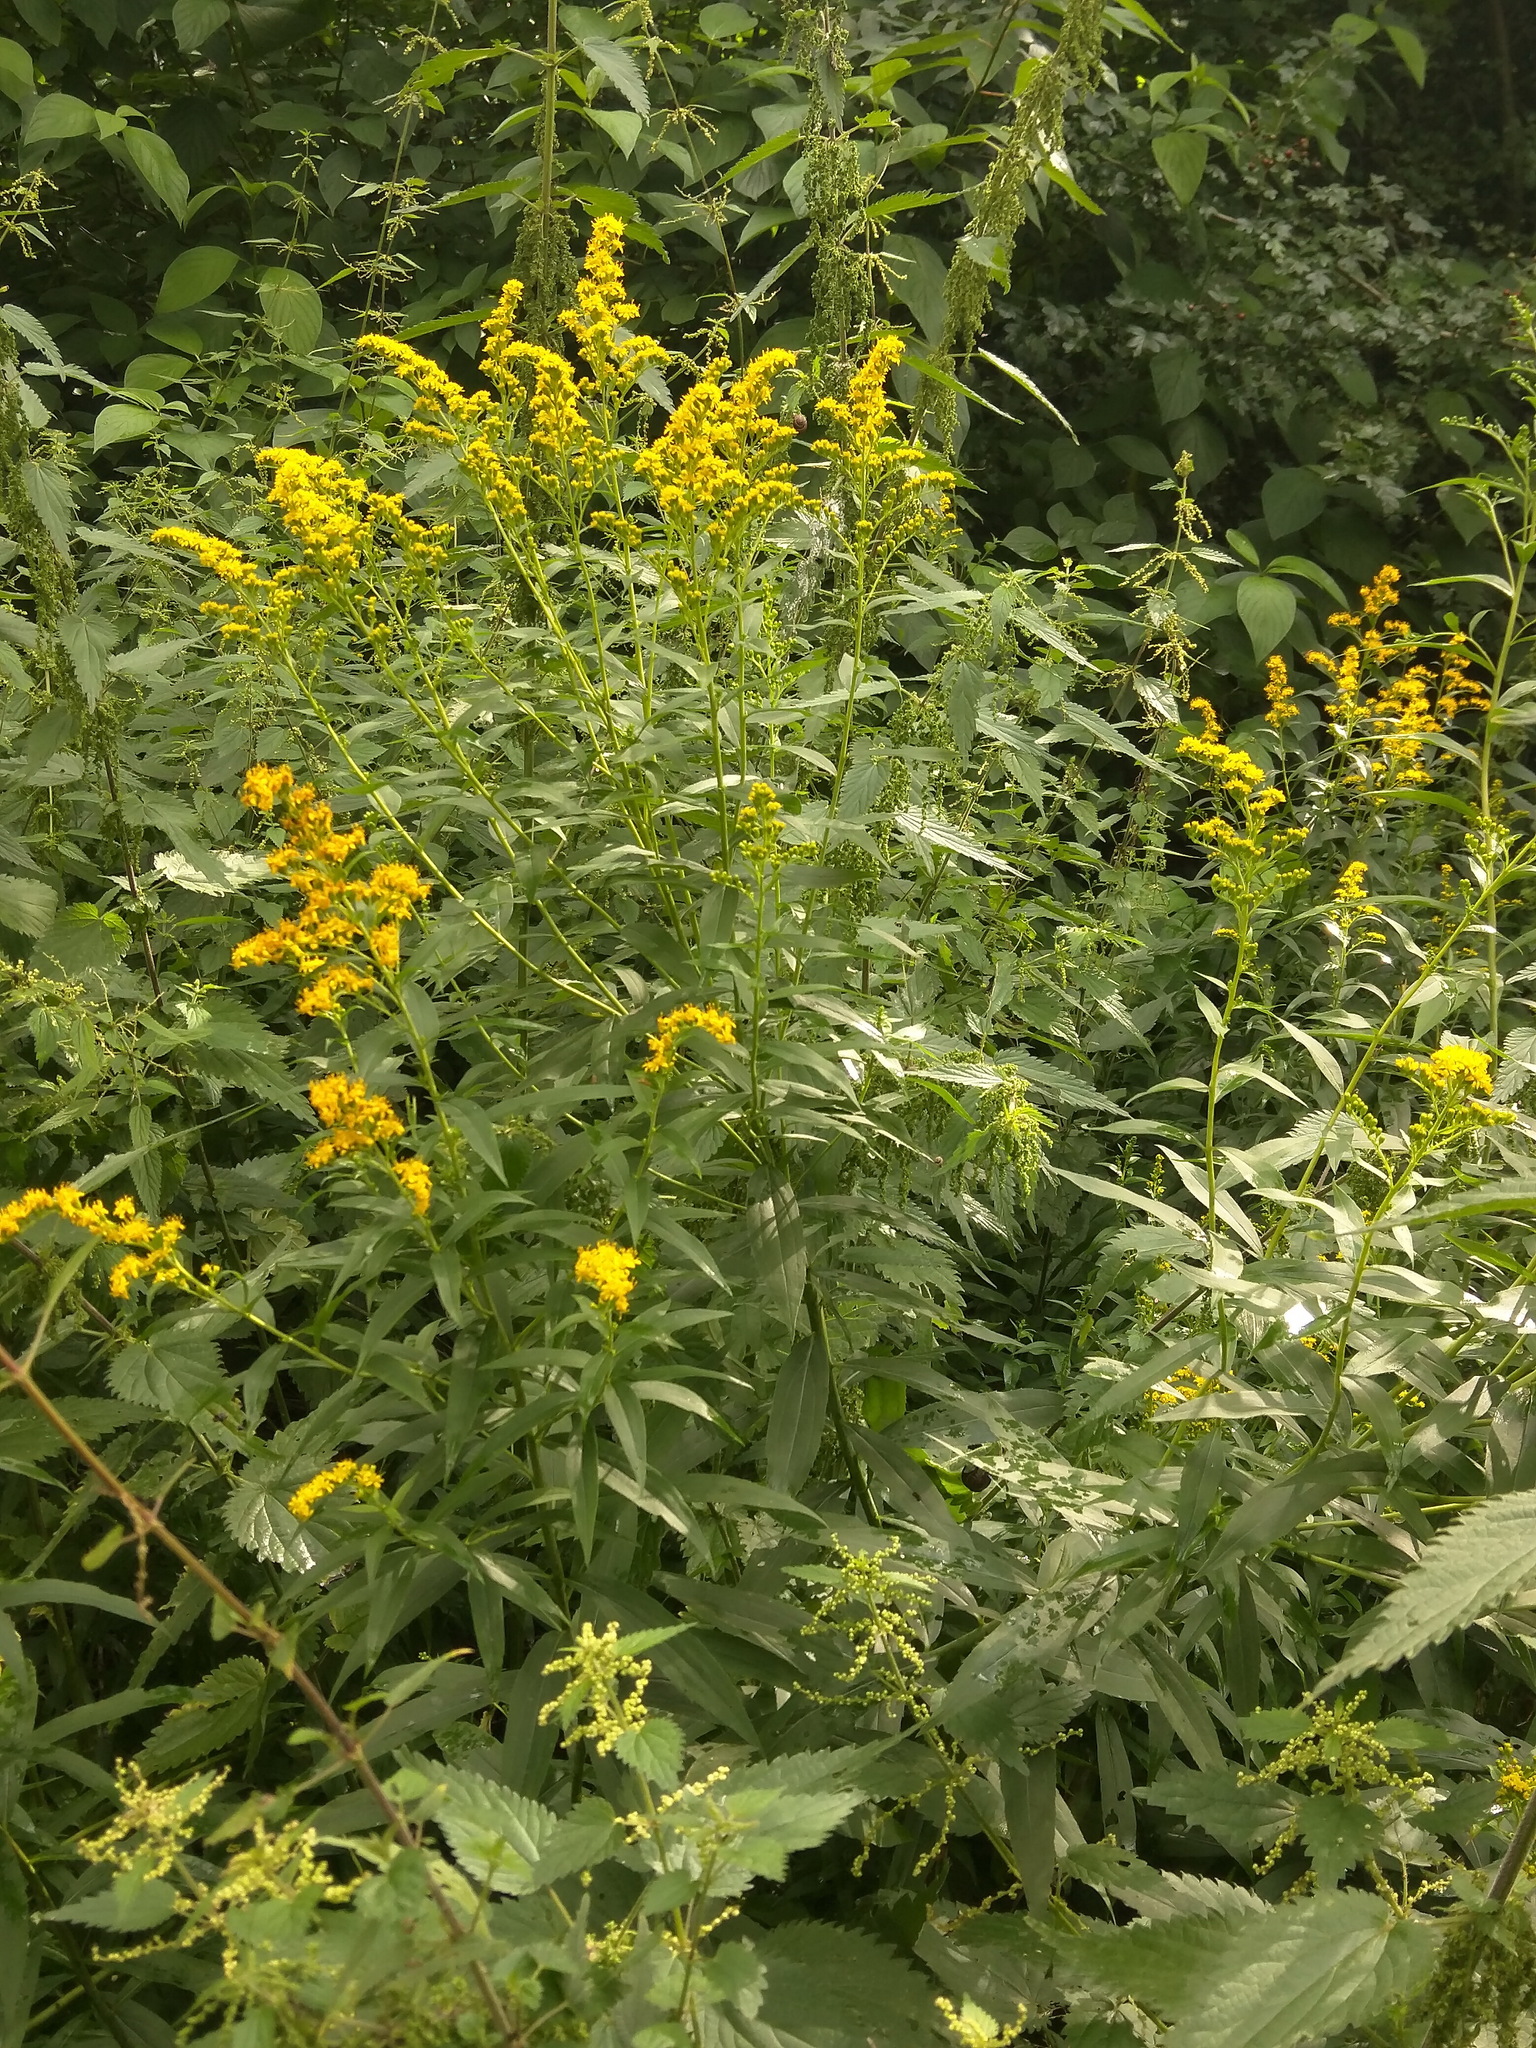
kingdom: Plantae
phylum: Tracheophyta
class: Magnoliopsida
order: Asterales
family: Asteraceae
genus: Solidago
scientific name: Solidago canadensis
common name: Canada goldenrod
